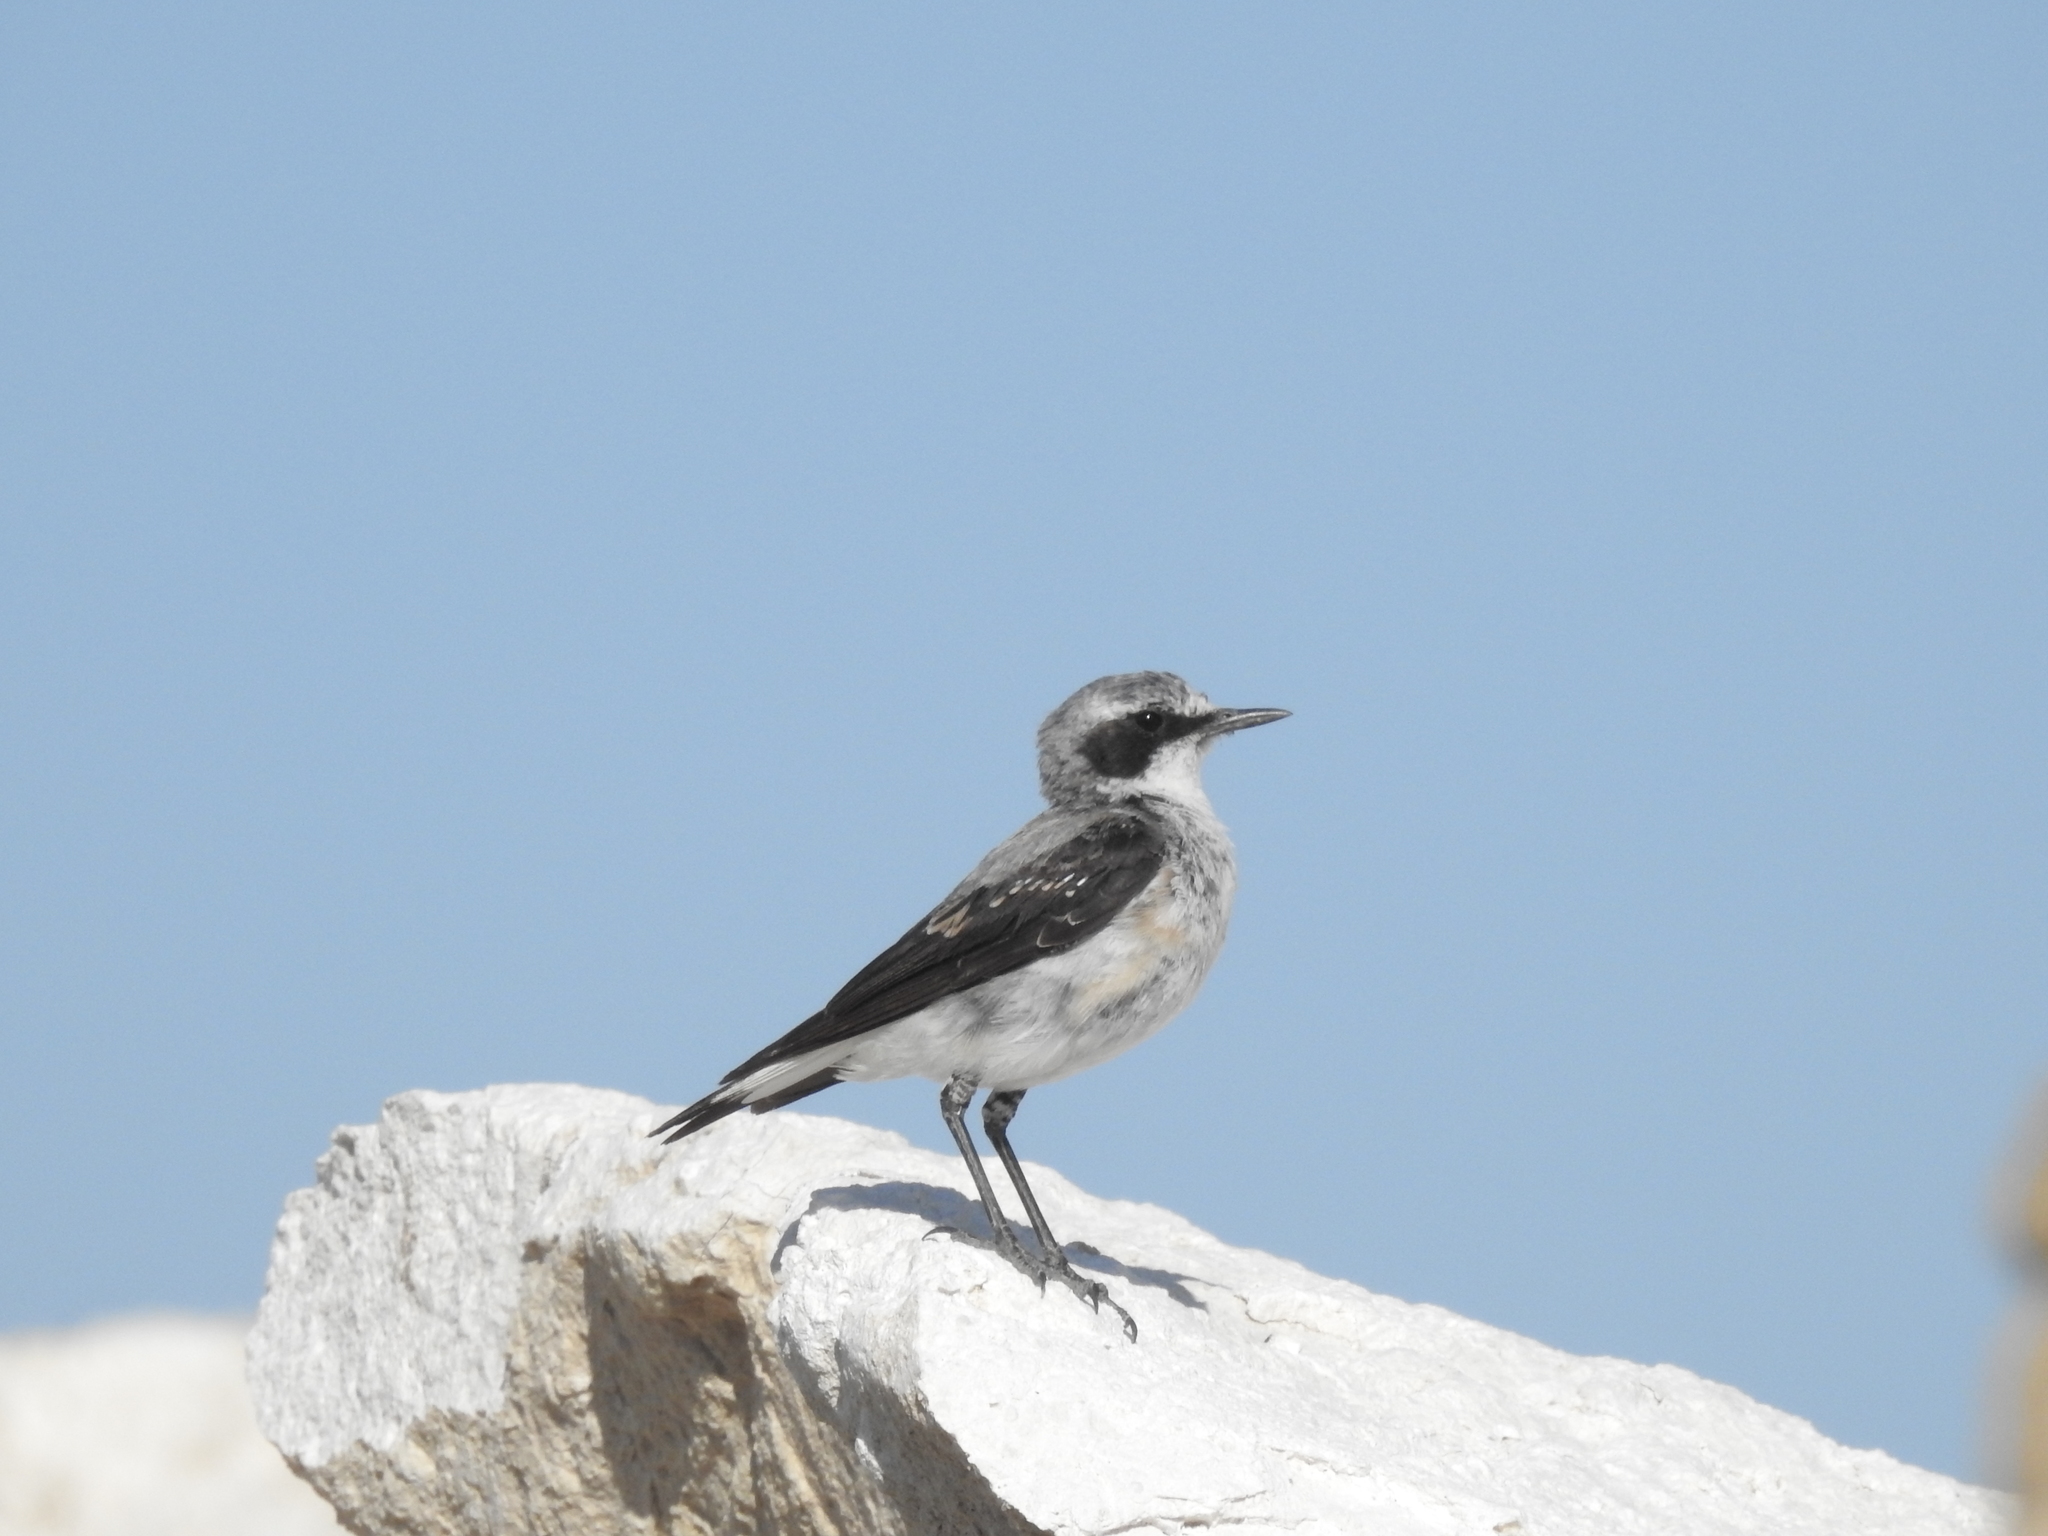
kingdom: Animalia
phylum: Chordata
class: Aves
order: Passeriformes
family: Muscicapidae
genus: Oenanthe
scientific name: Oenanthe oenanthe
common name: Northern wheatear
